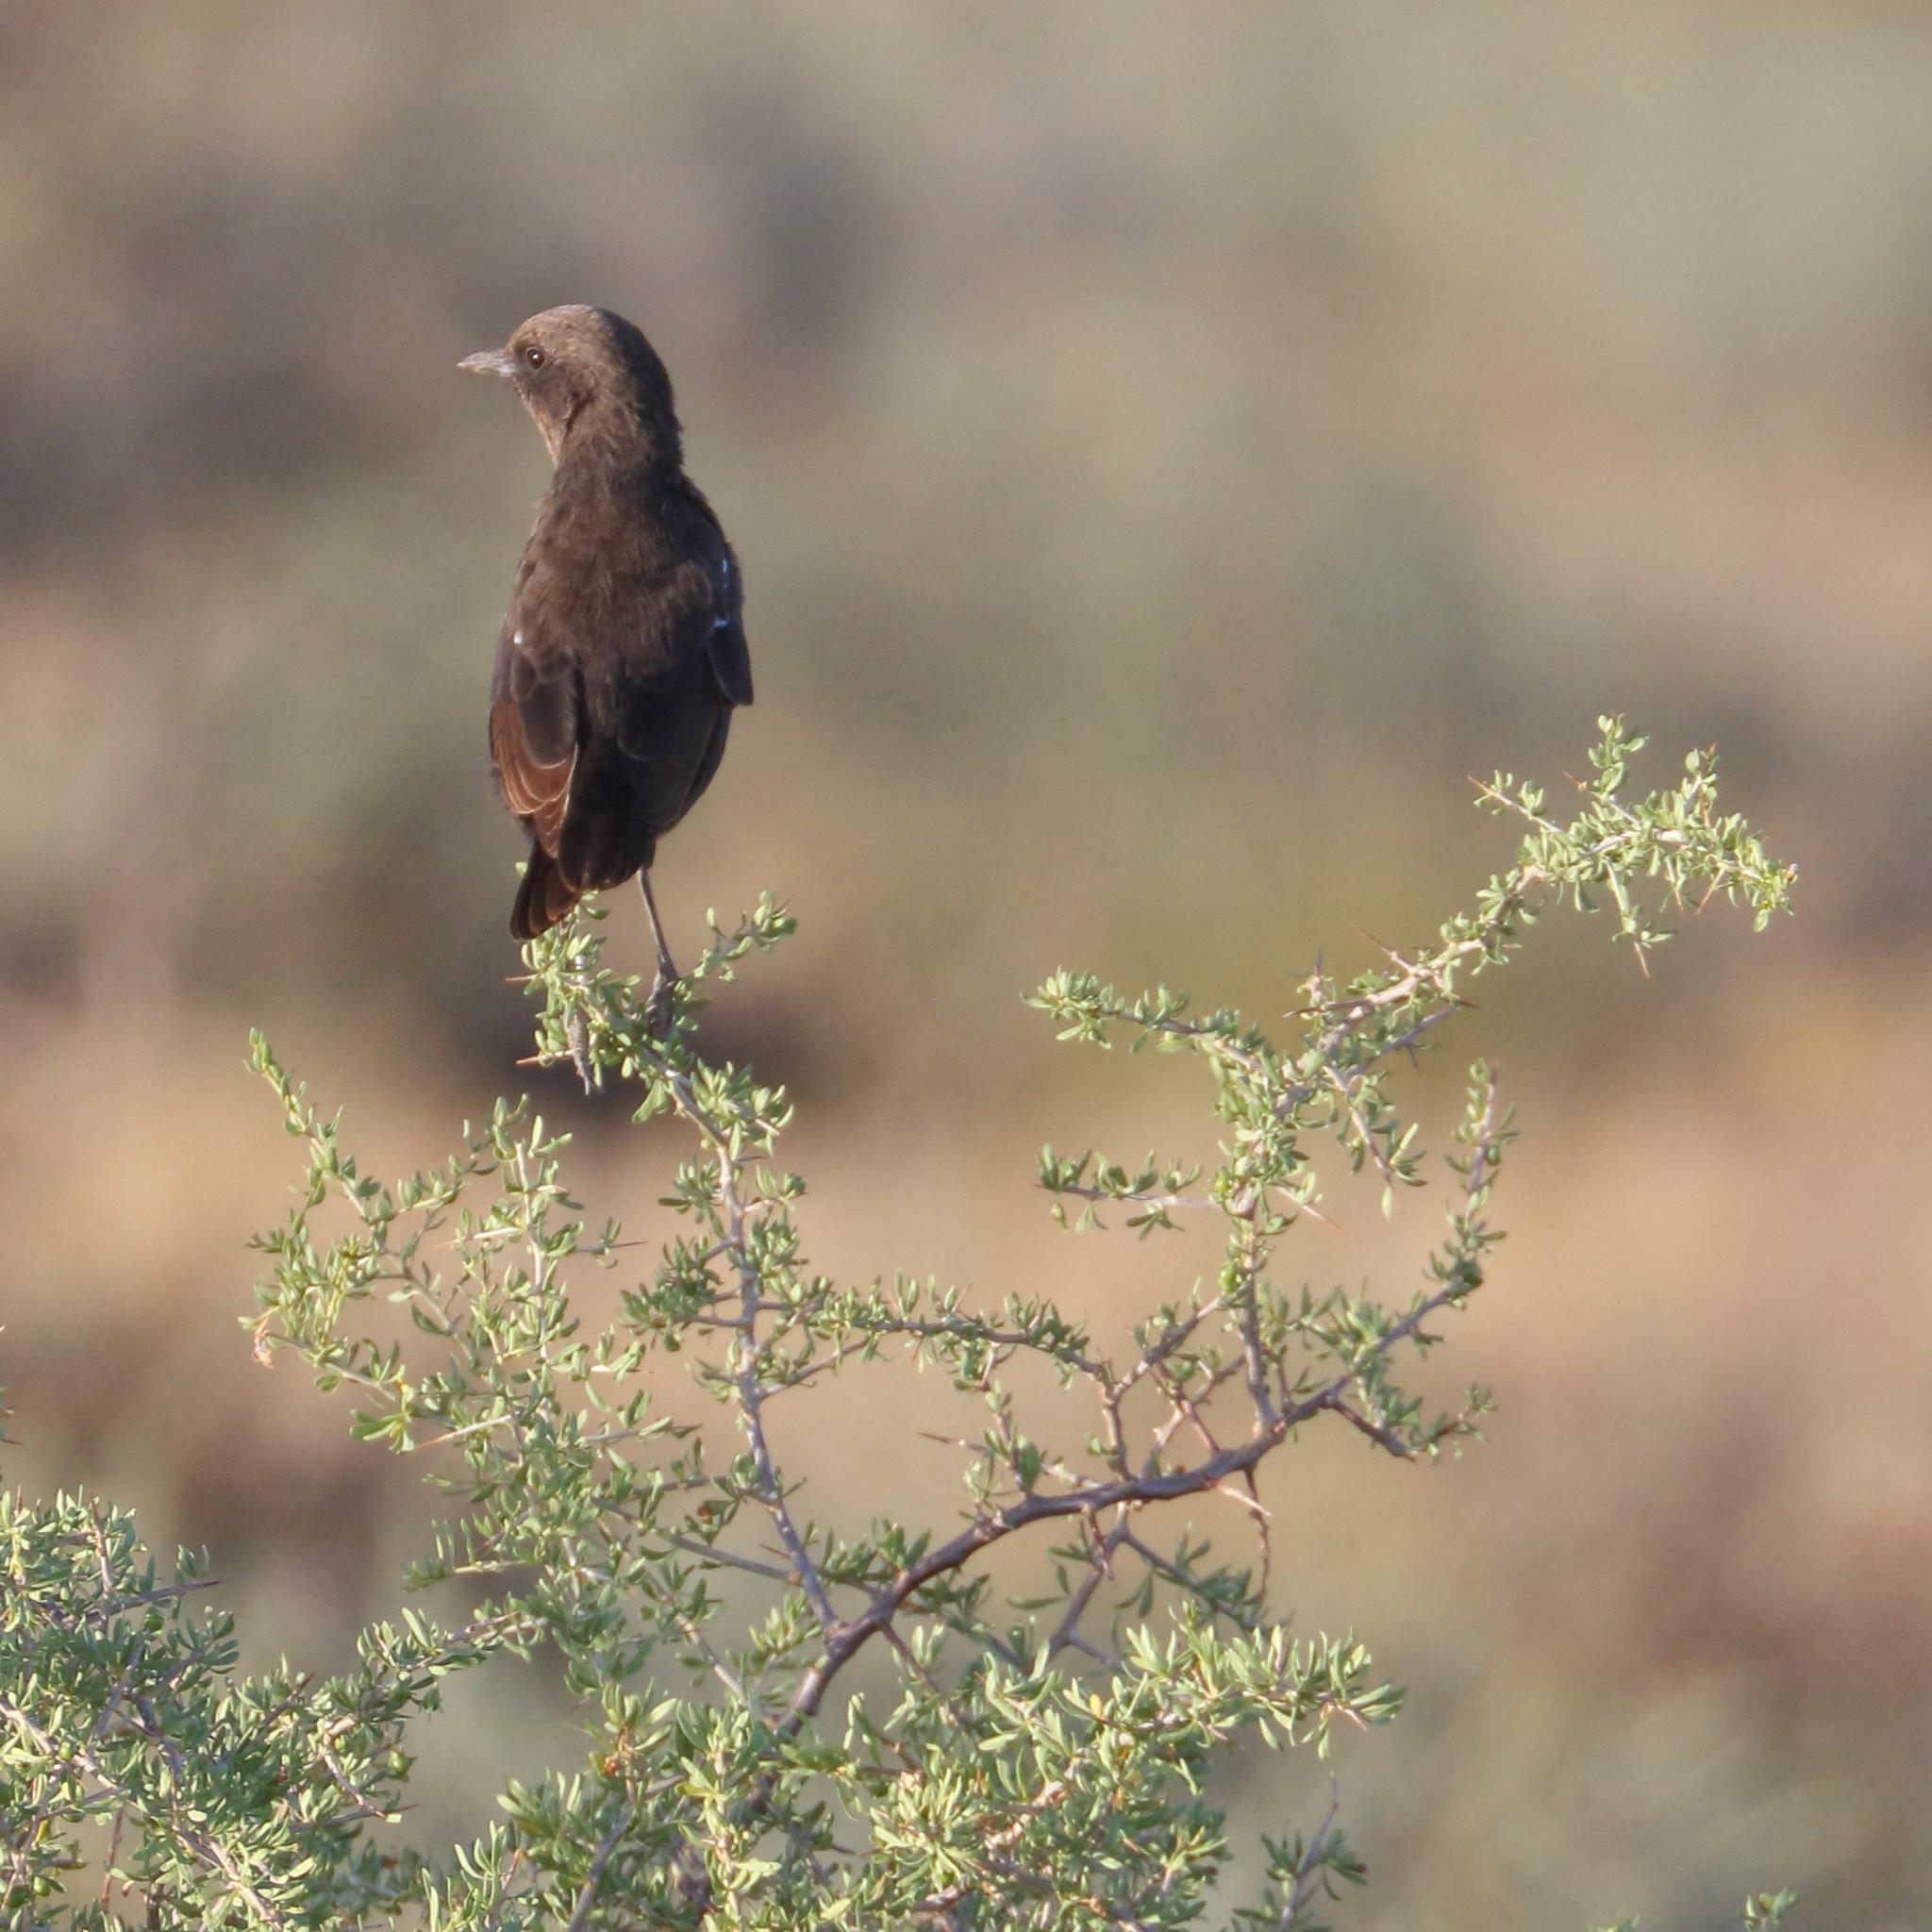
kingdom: Animalia
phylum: Chordata
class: Aves
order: Passeriformes
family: Muscicapidae
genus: Myrmecocichla
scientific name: Myrmecocichla formicivora
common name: Ant-eating chat
